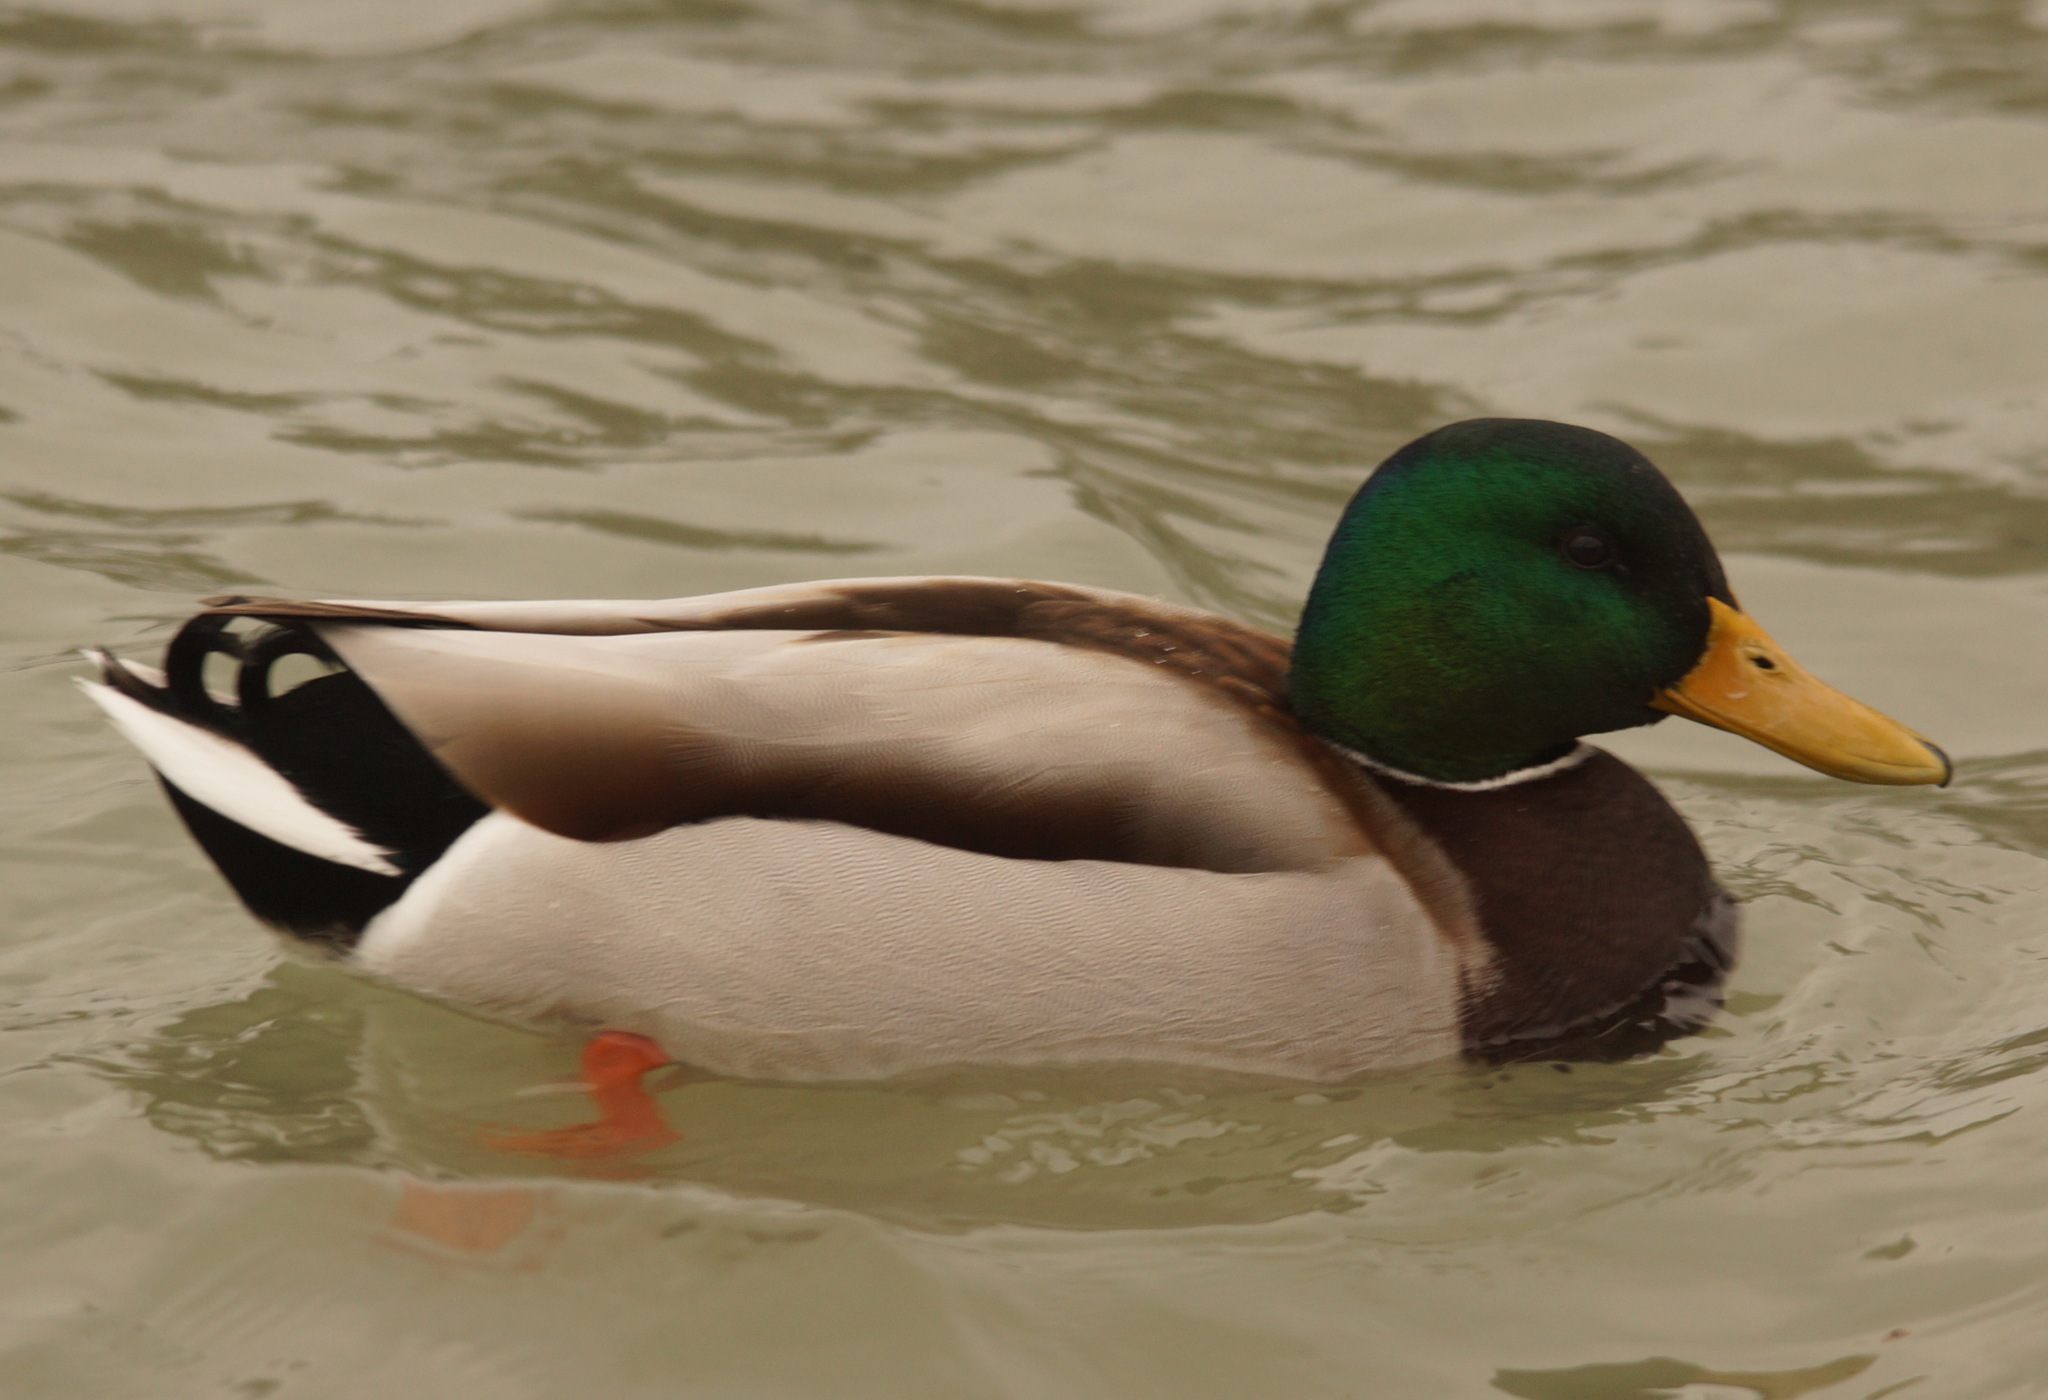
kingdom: Animalia
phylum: Chordata
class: Aves
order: Anseriformes
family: Anatidae
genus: Anas
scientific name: Anas platyrhynchos
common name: Mallard
